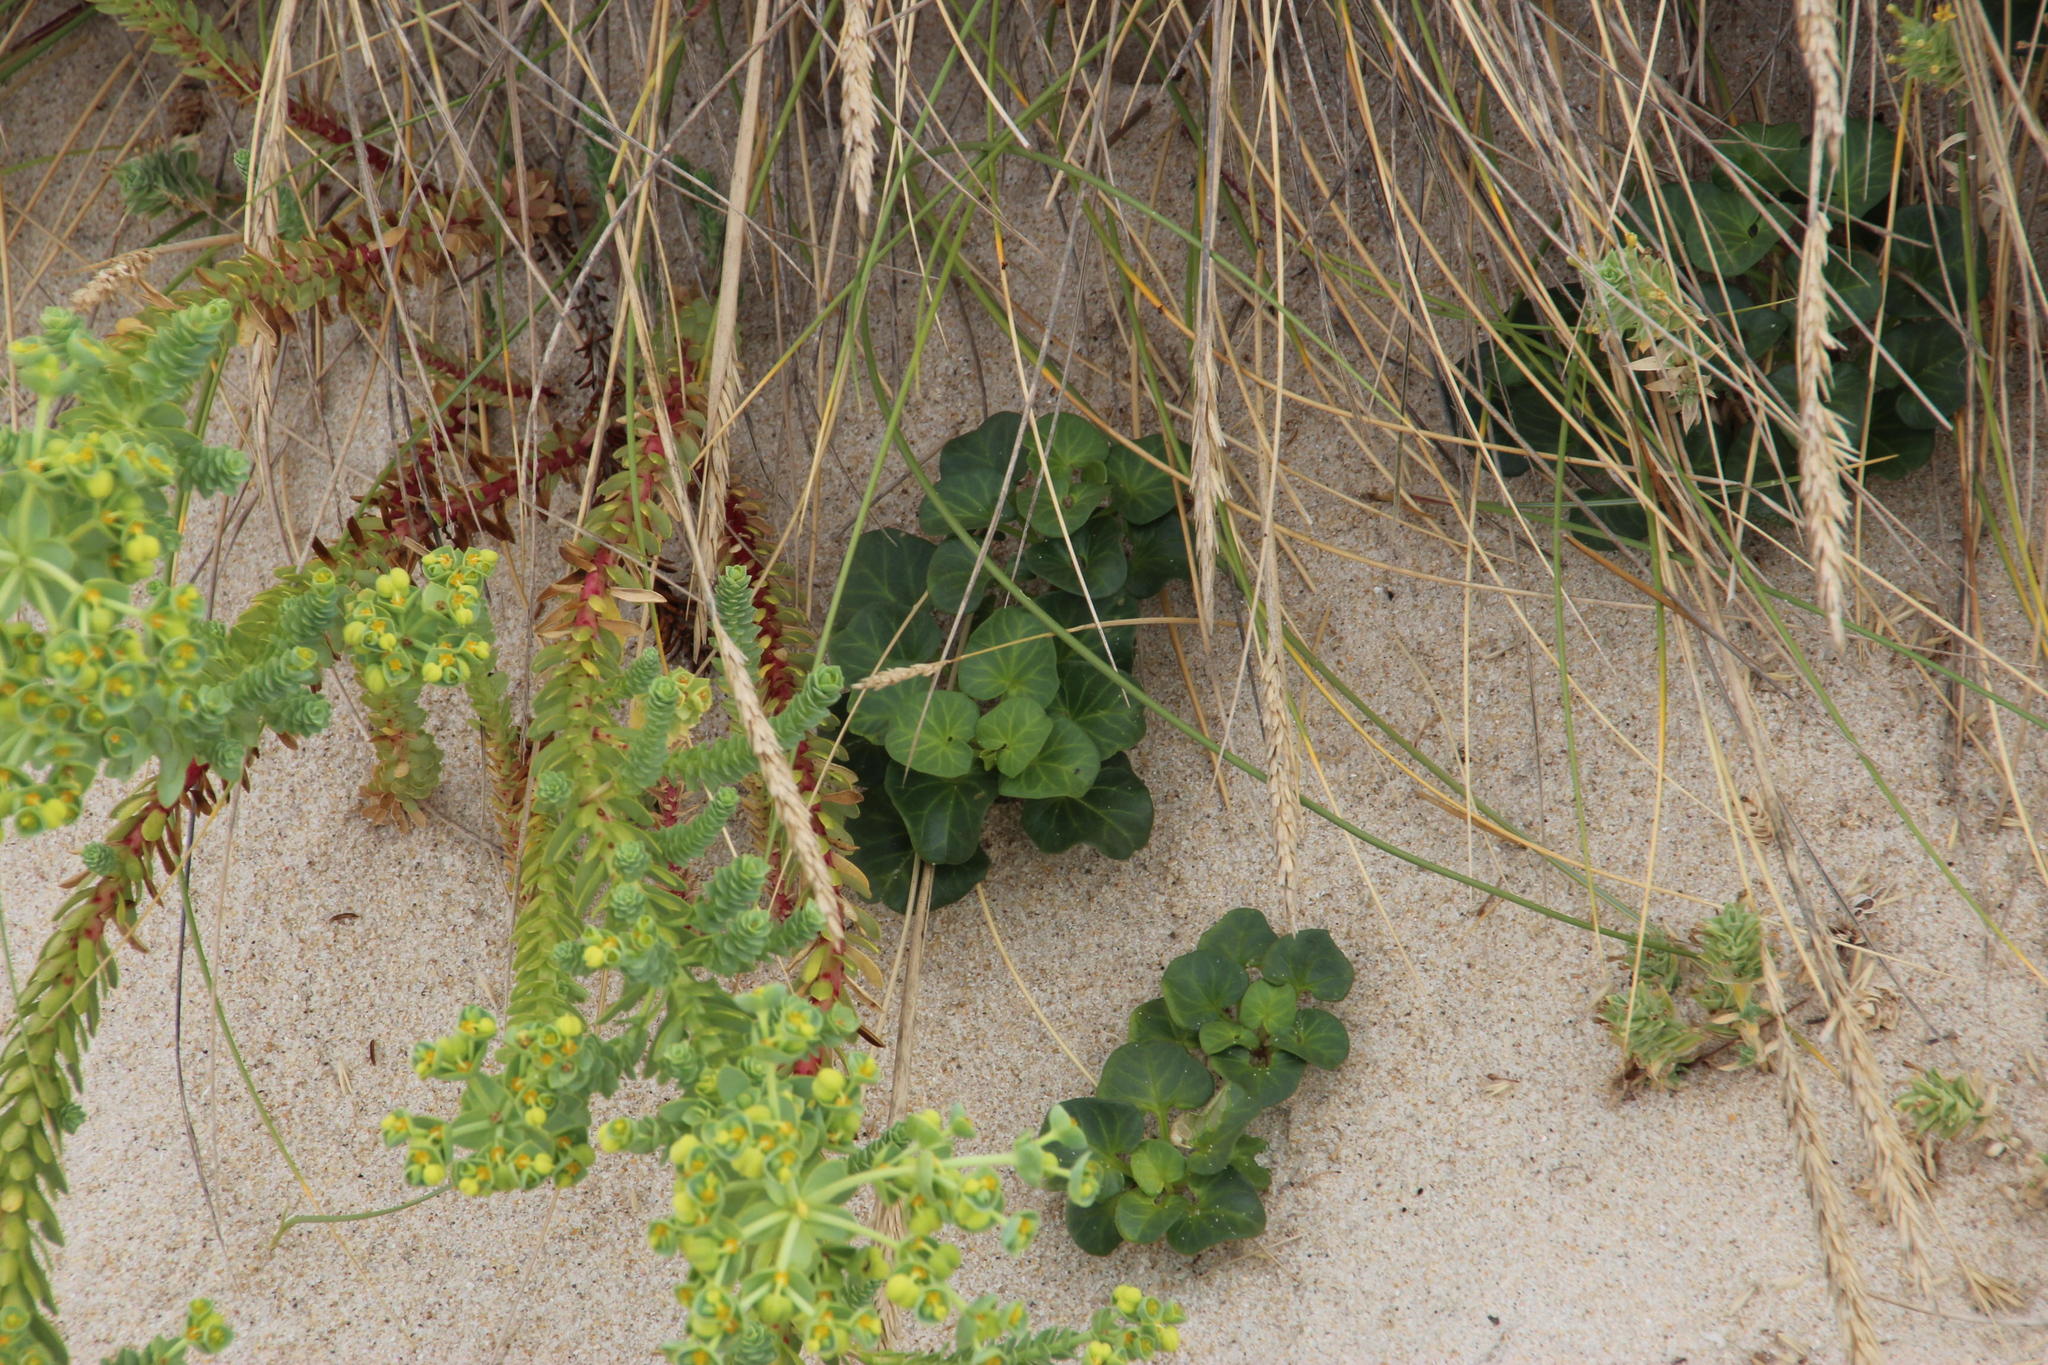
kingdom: Plantae
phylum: Tracheophyta
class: Magnoliopsida
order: Solanales
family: Convolvulaceae
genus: Calystegia
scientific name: Calystegia soldanella
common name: Sea bindweed
